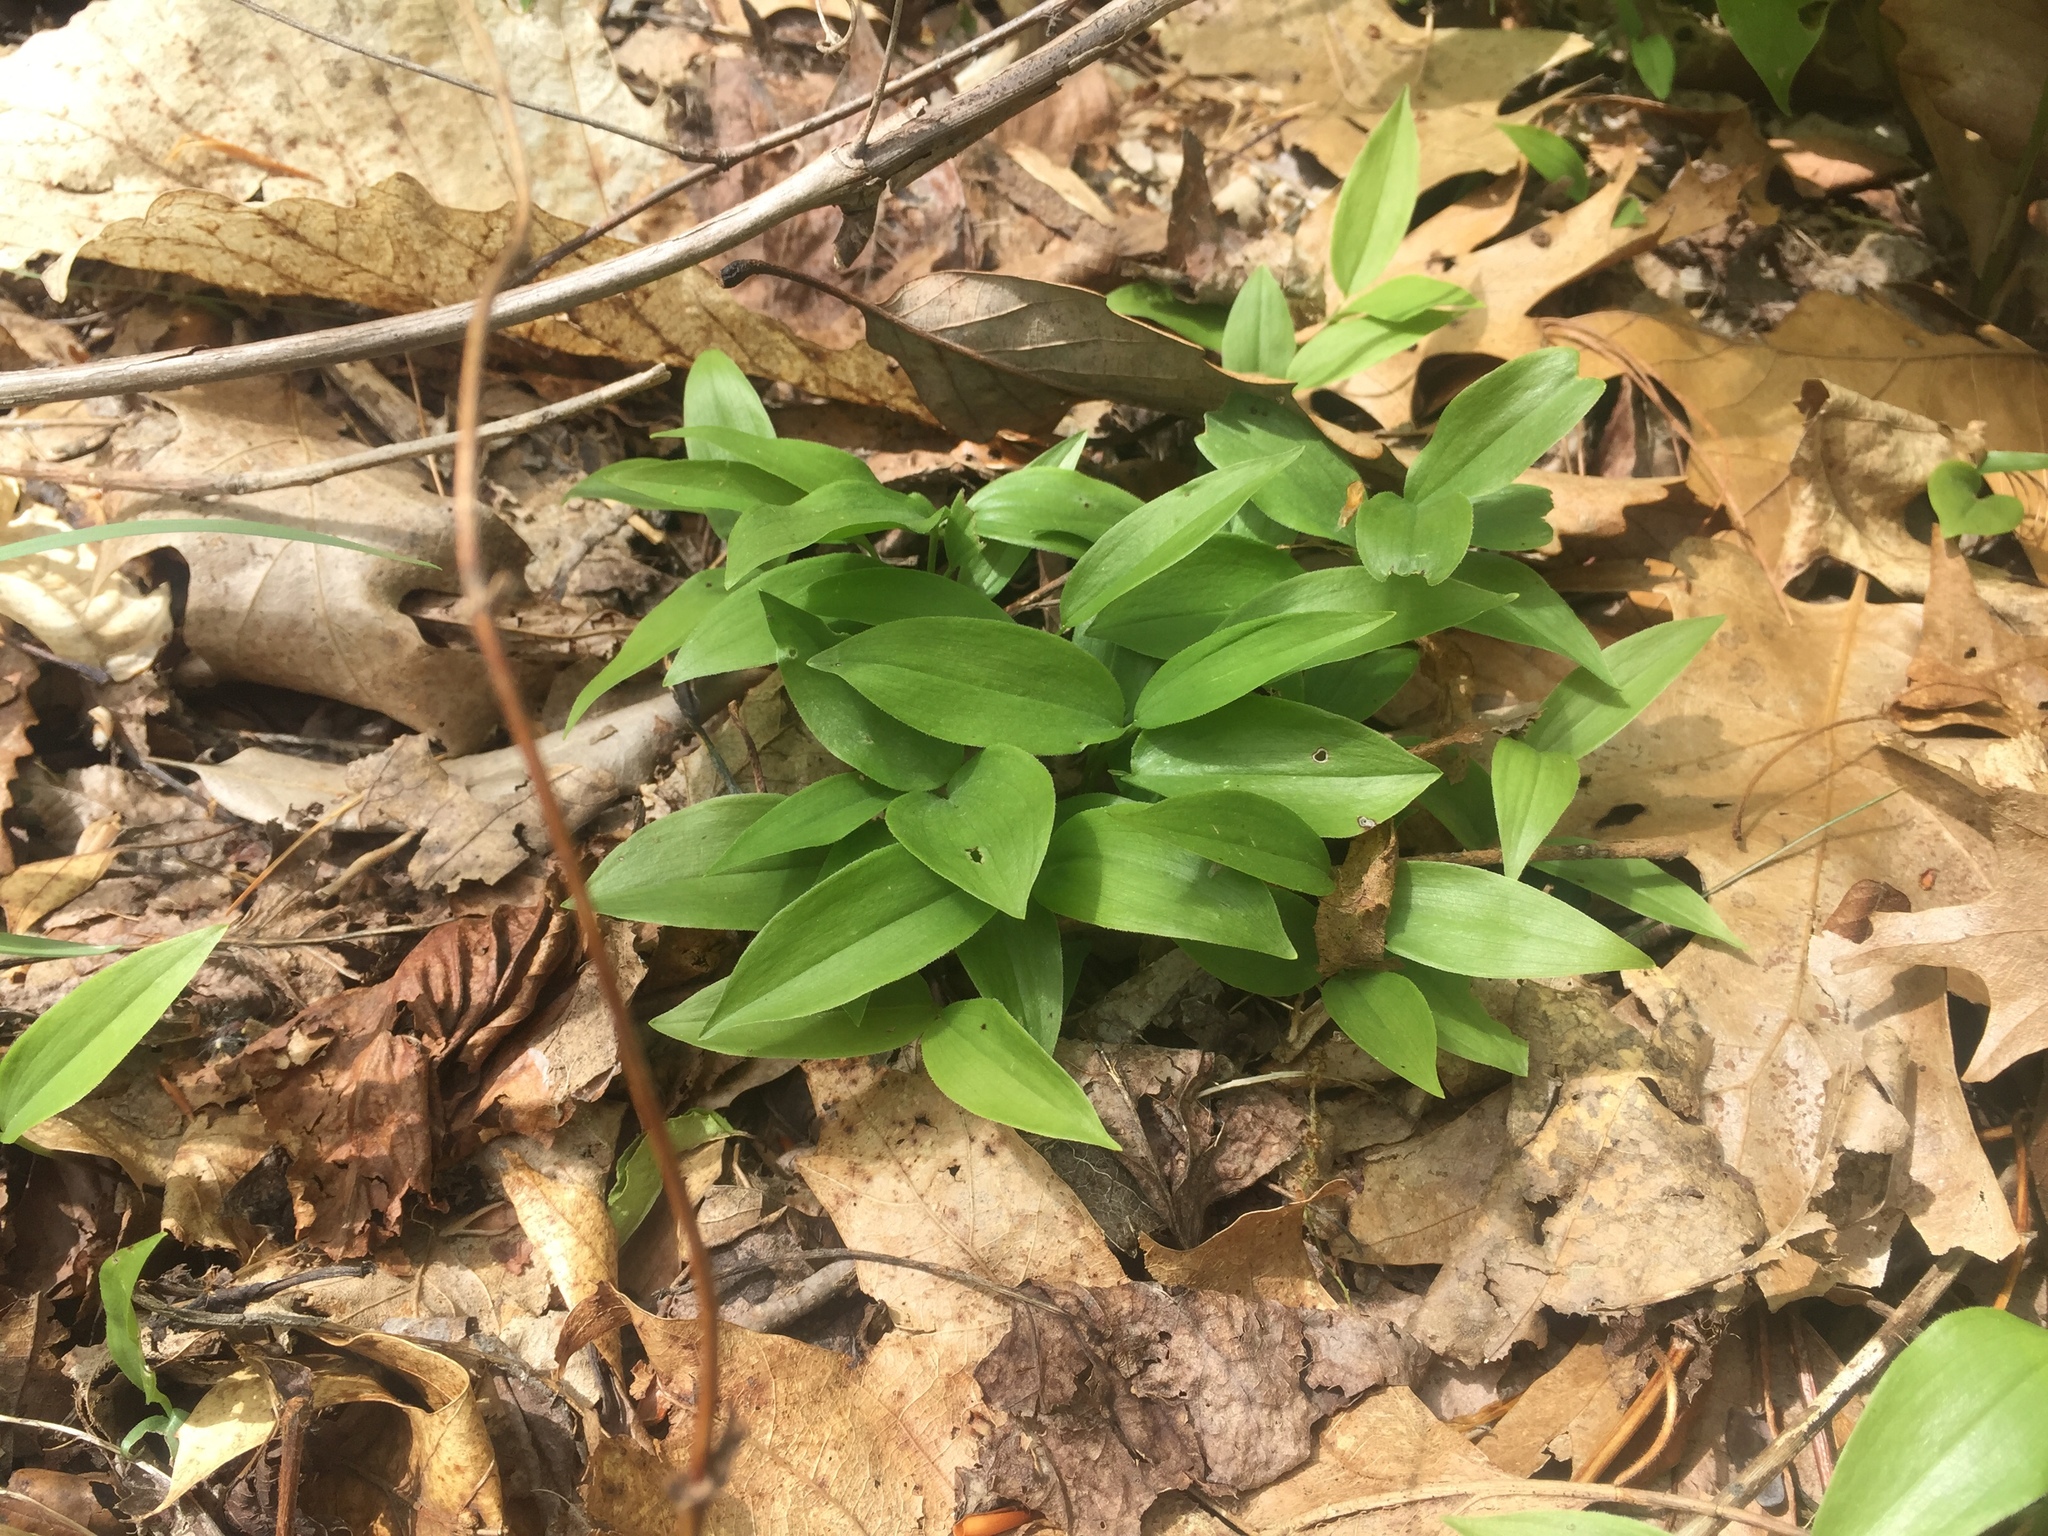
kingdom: Plantae
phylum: Tracheophyta
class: Liliopsida
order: Asparagales
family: Asparagaceae
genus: Maianthemum
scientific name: Maianthemum canadense
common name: False lily-of-the-valley
